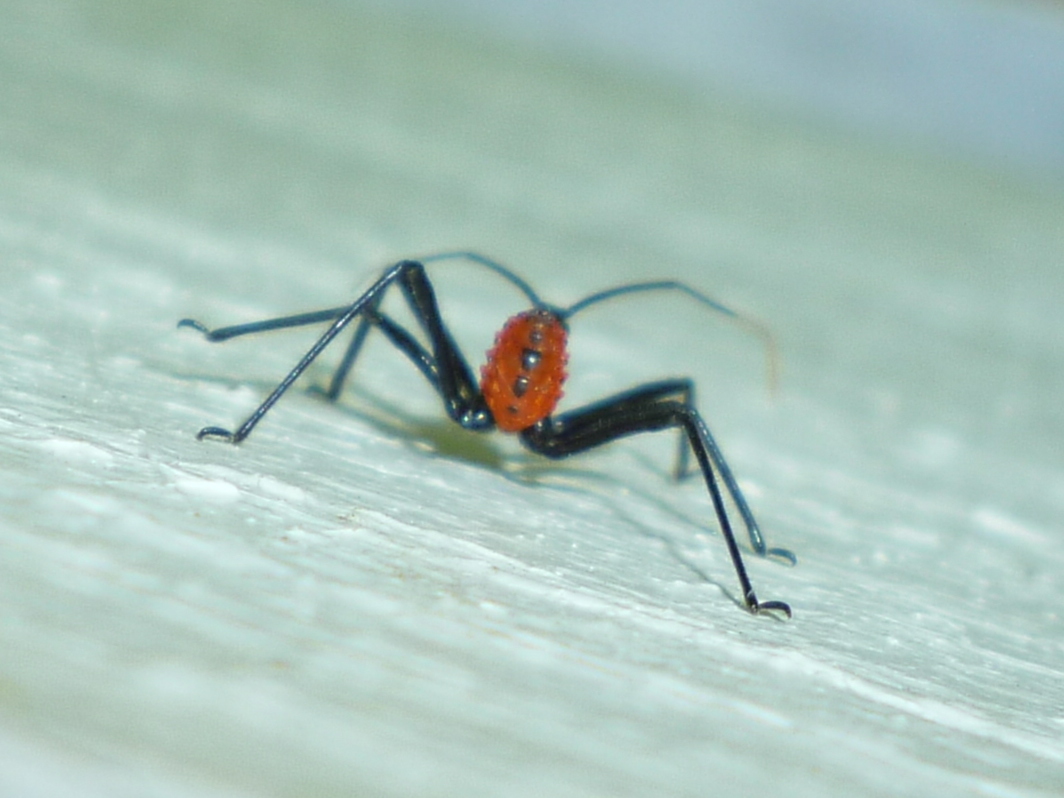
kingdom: Animalia
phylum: Arthropoda
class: Insecta
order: Hemiptera
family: Reduviidae
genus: Arilus
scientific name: Arilus cristatus
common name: North american wheel bug
